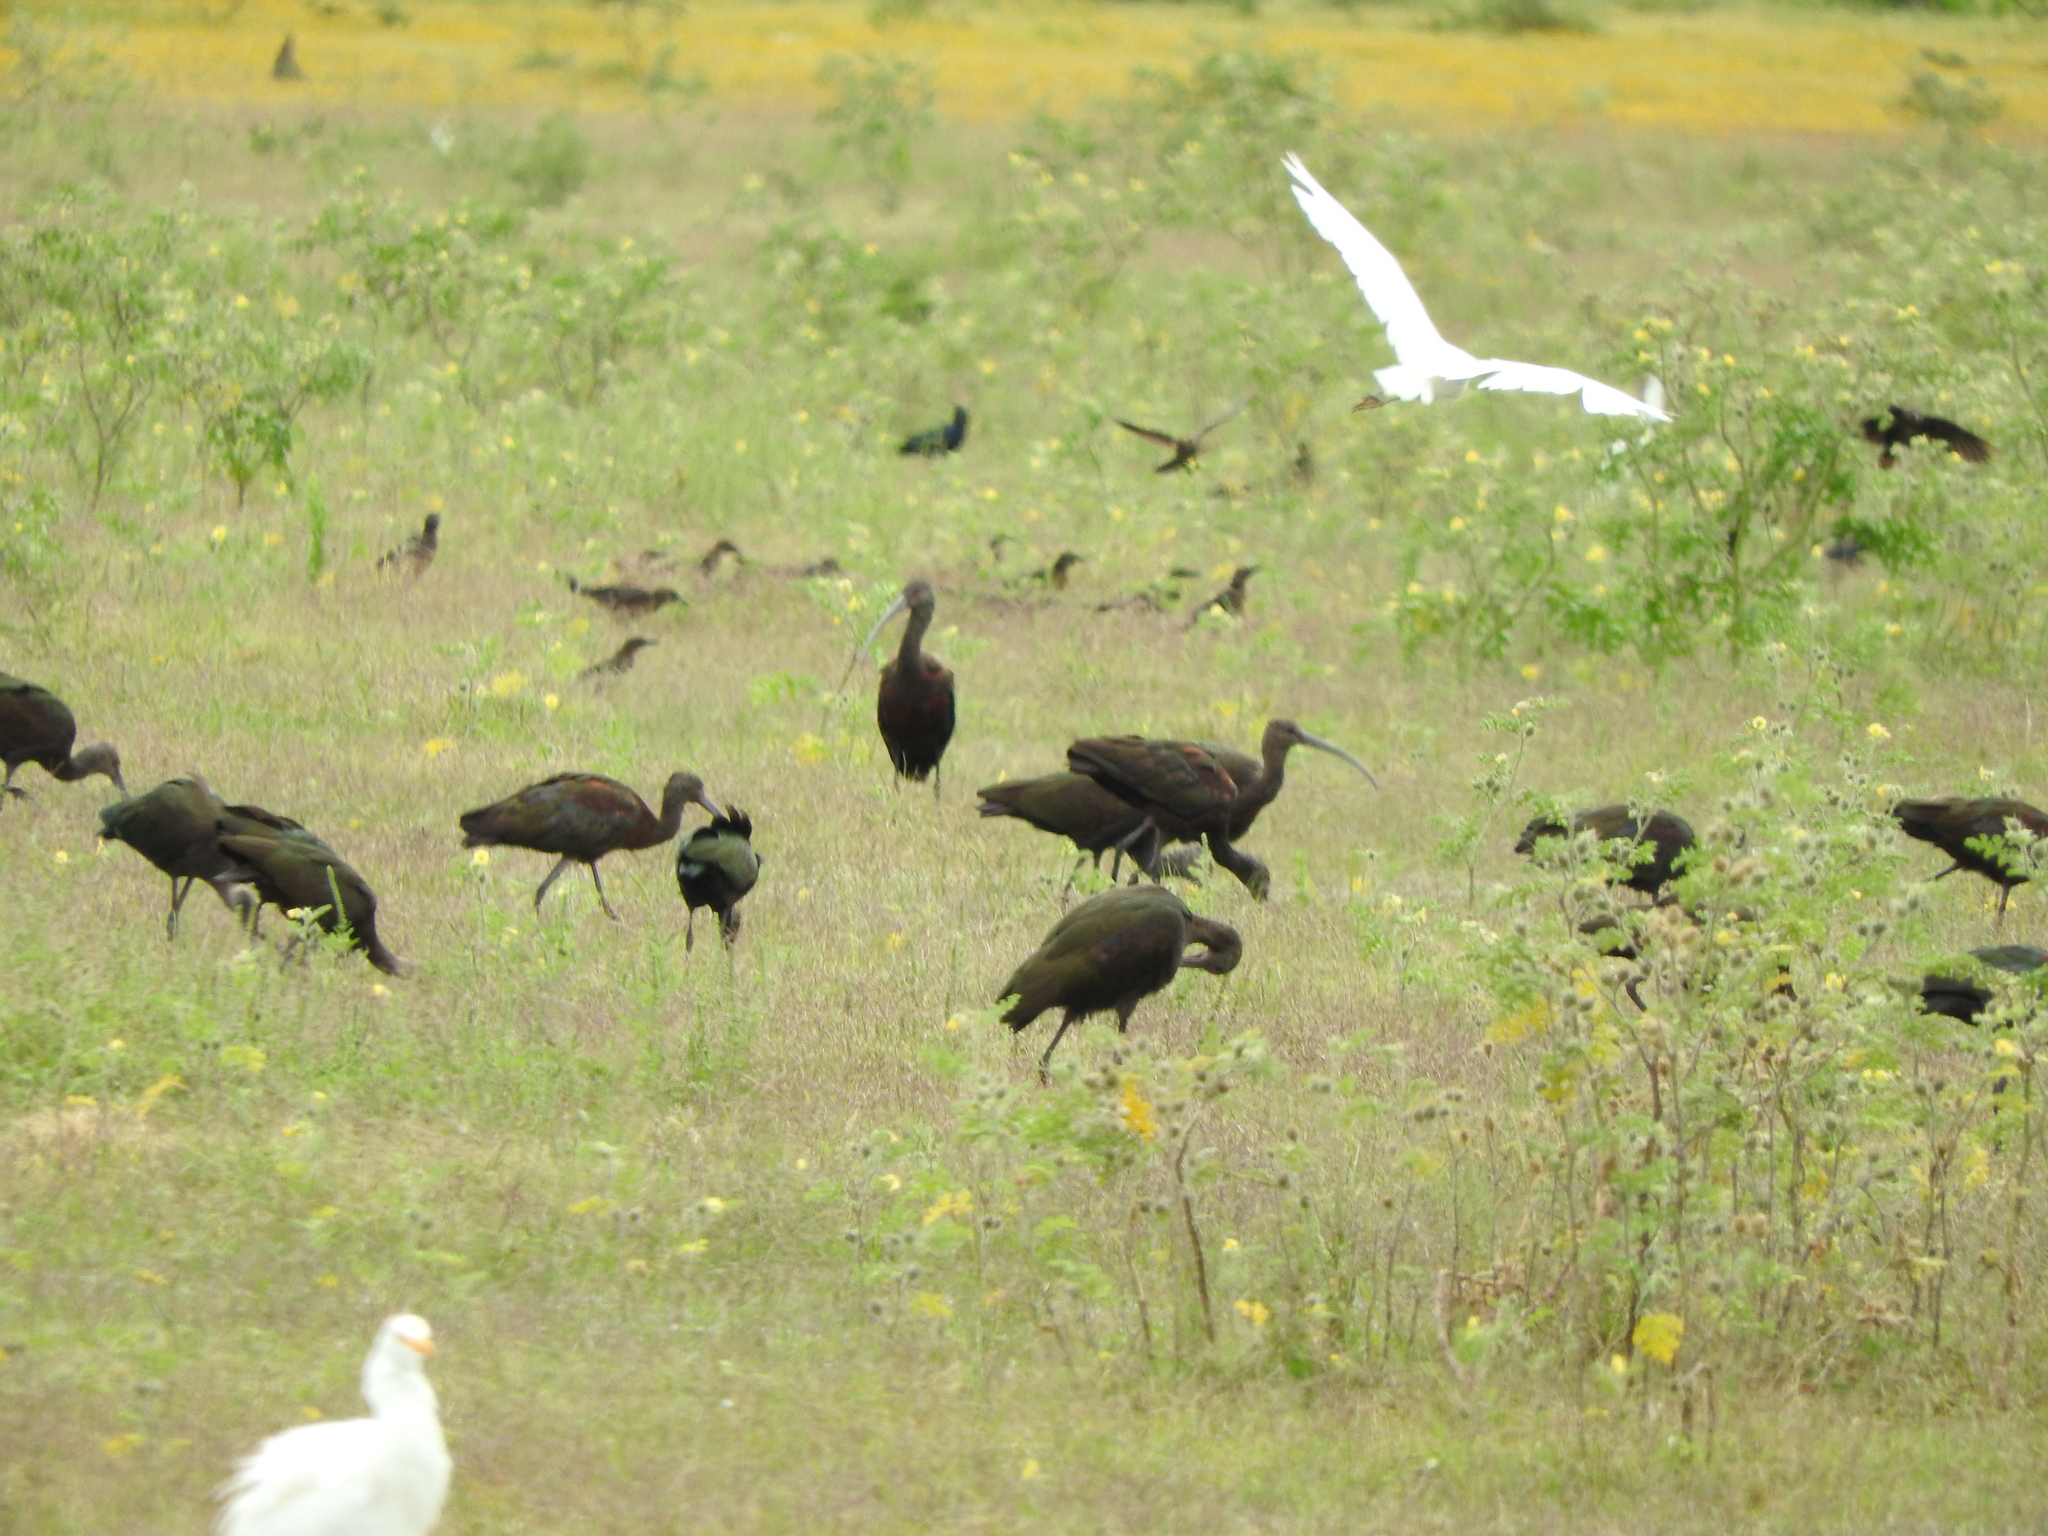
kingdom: Animalia
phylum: Chordata
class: Aves
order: Pelecaniformes
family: Threskiornithidae
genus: Plegadis
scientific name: Plegadis chihi
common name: White-faced ibis
